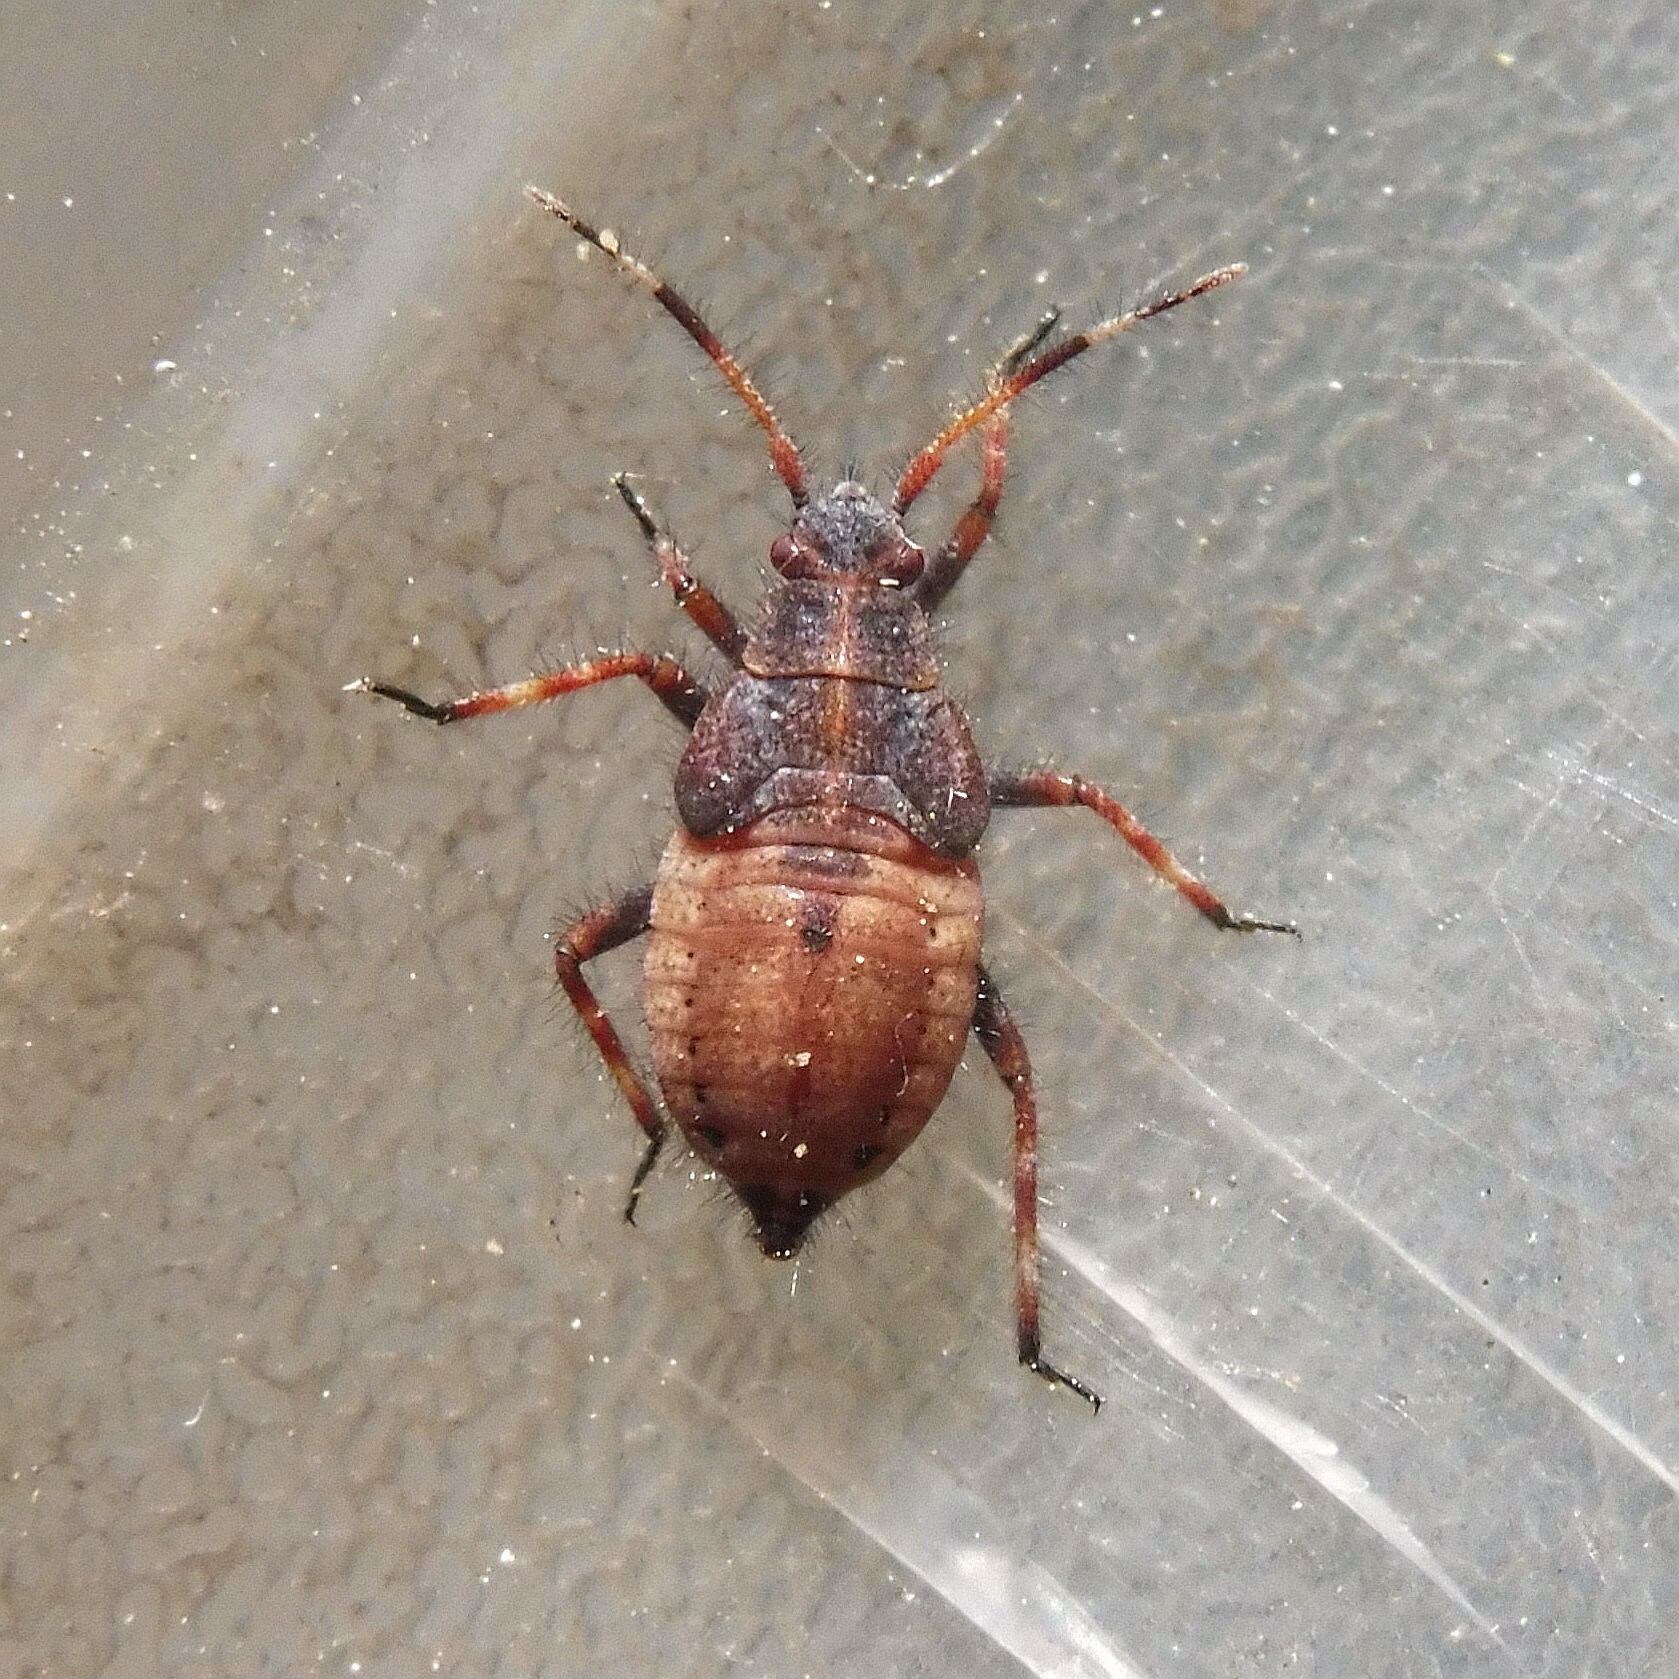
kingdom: Animalia
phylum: Arthropoda
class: Insecta
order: Hemiptera
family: Miridae
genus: Deraeocoris
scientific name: Deraeocoris olivaceus
